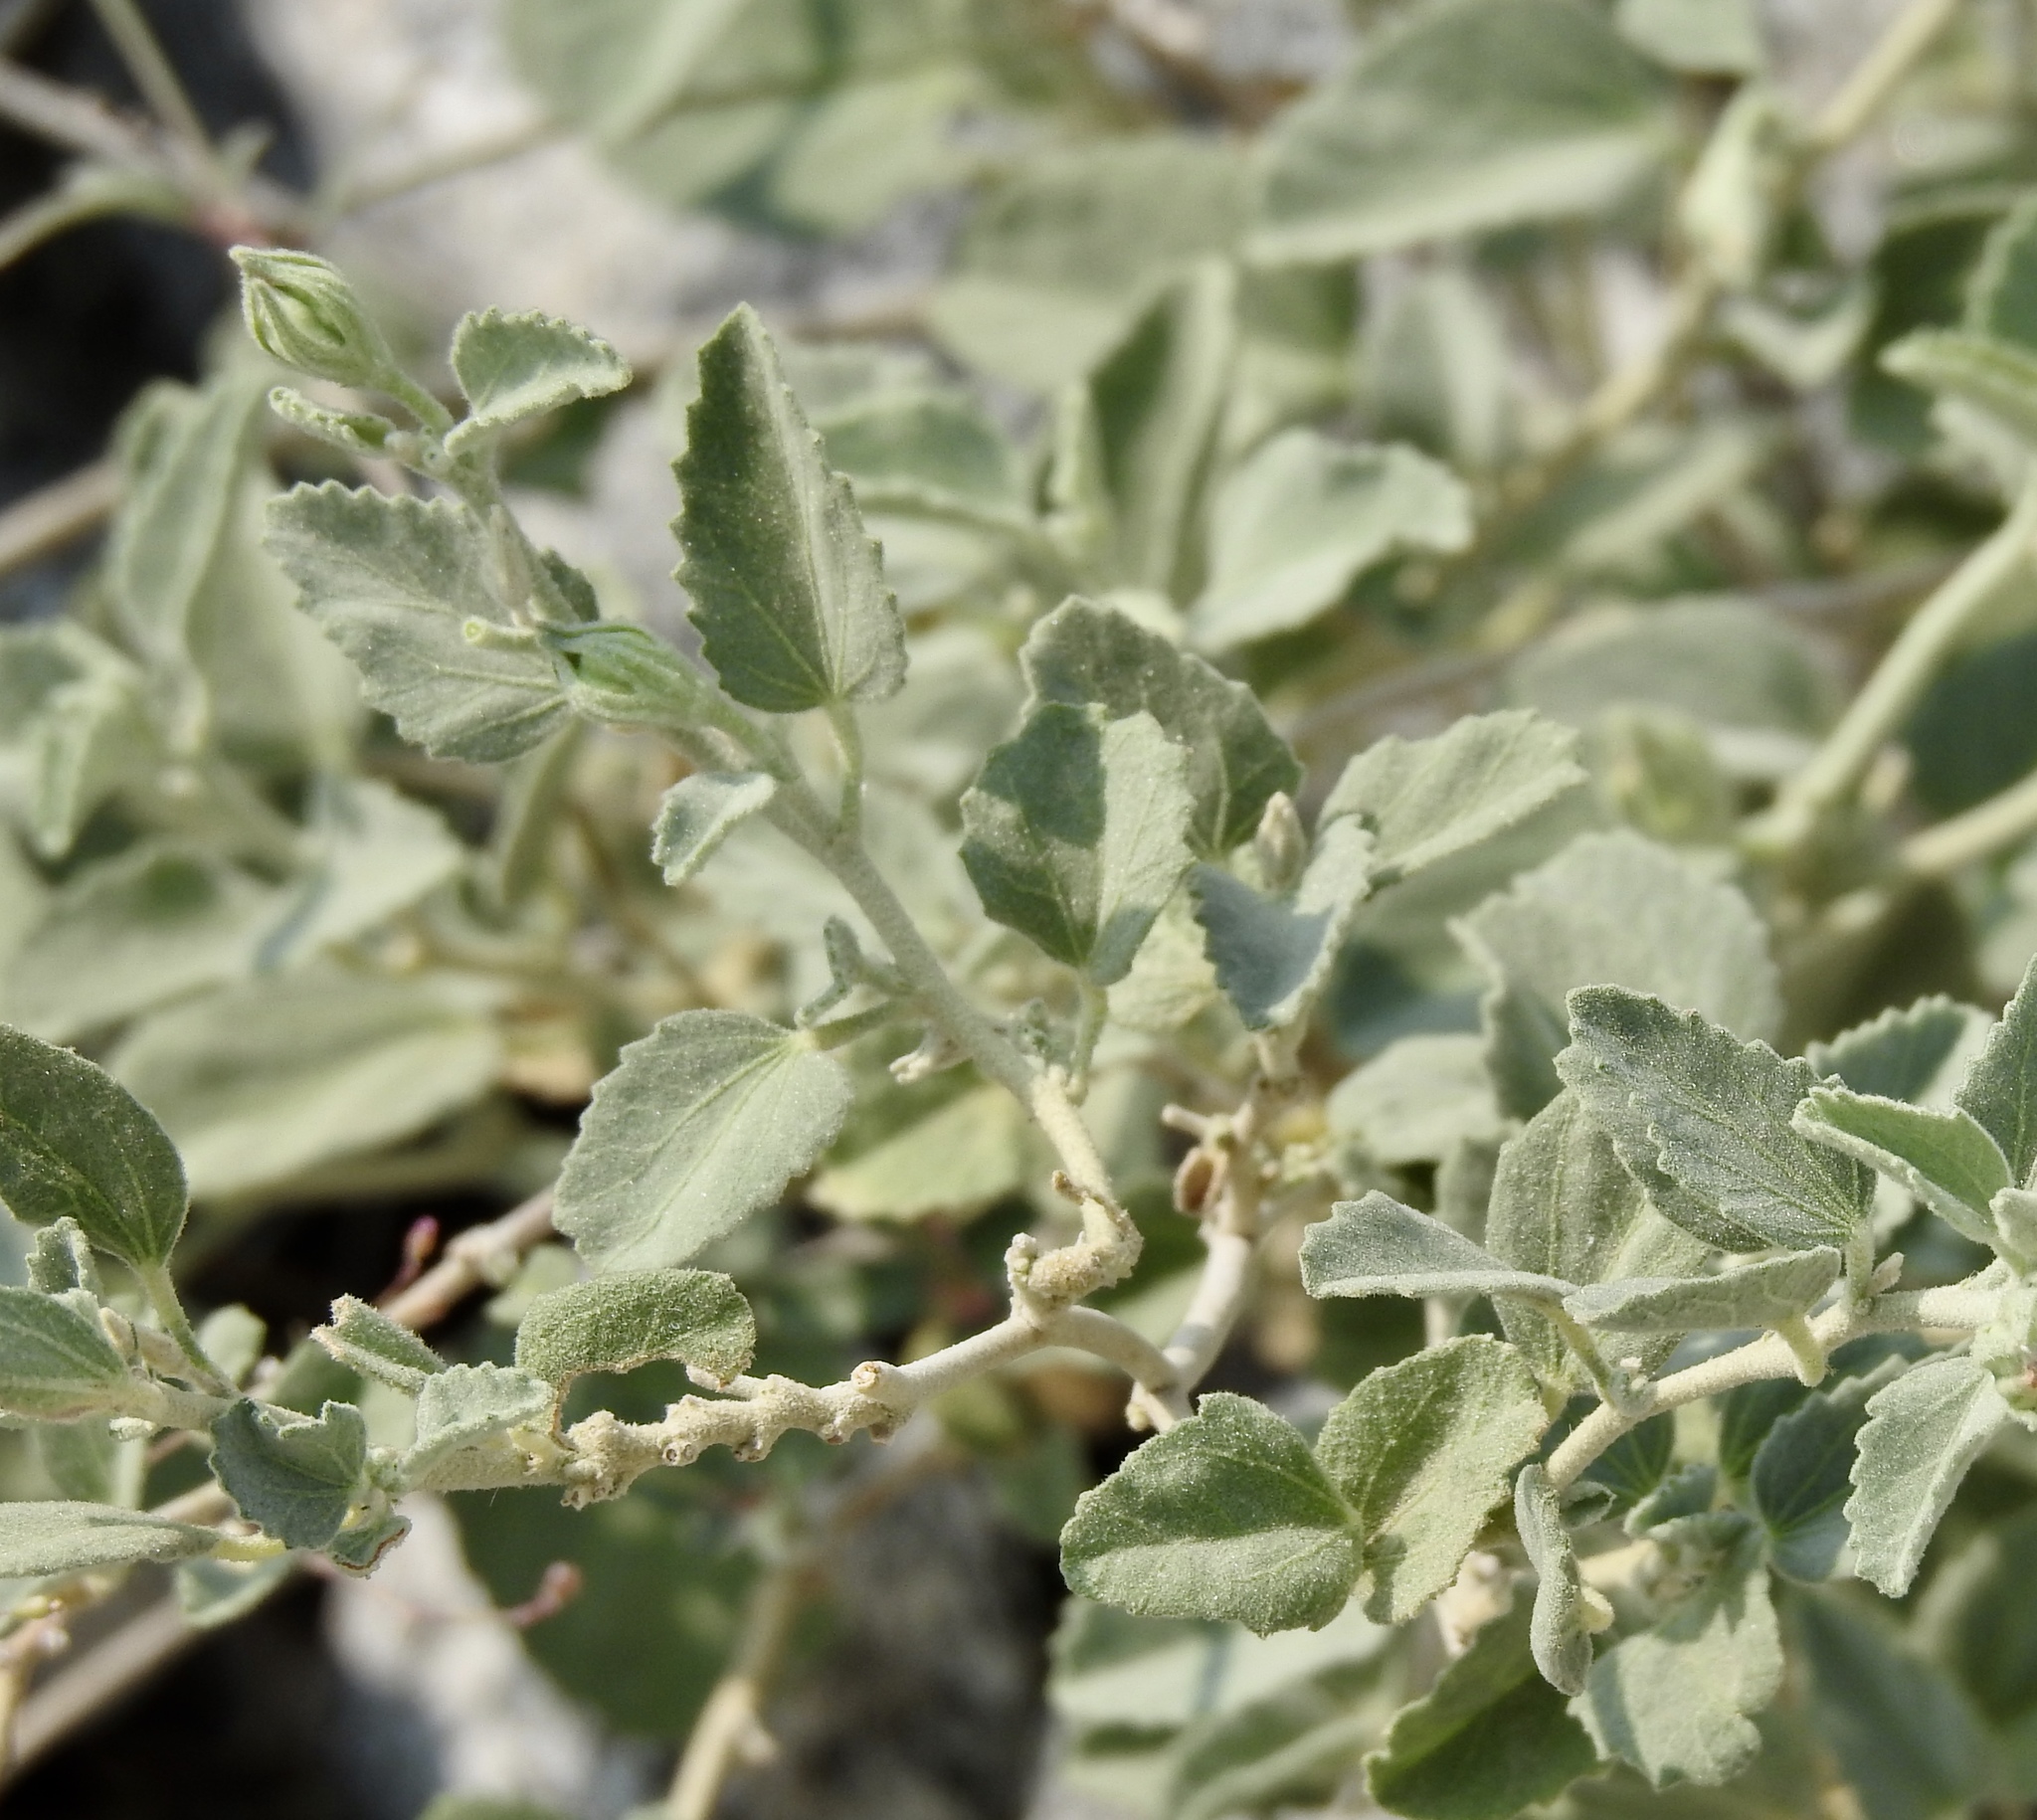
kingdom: Plantae
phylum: Tracheophyta
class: Magnoliopsida
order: Malvales
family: Malvaceae
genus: Hibiscus
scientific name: Hibiscus denudatus
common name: Paleface
